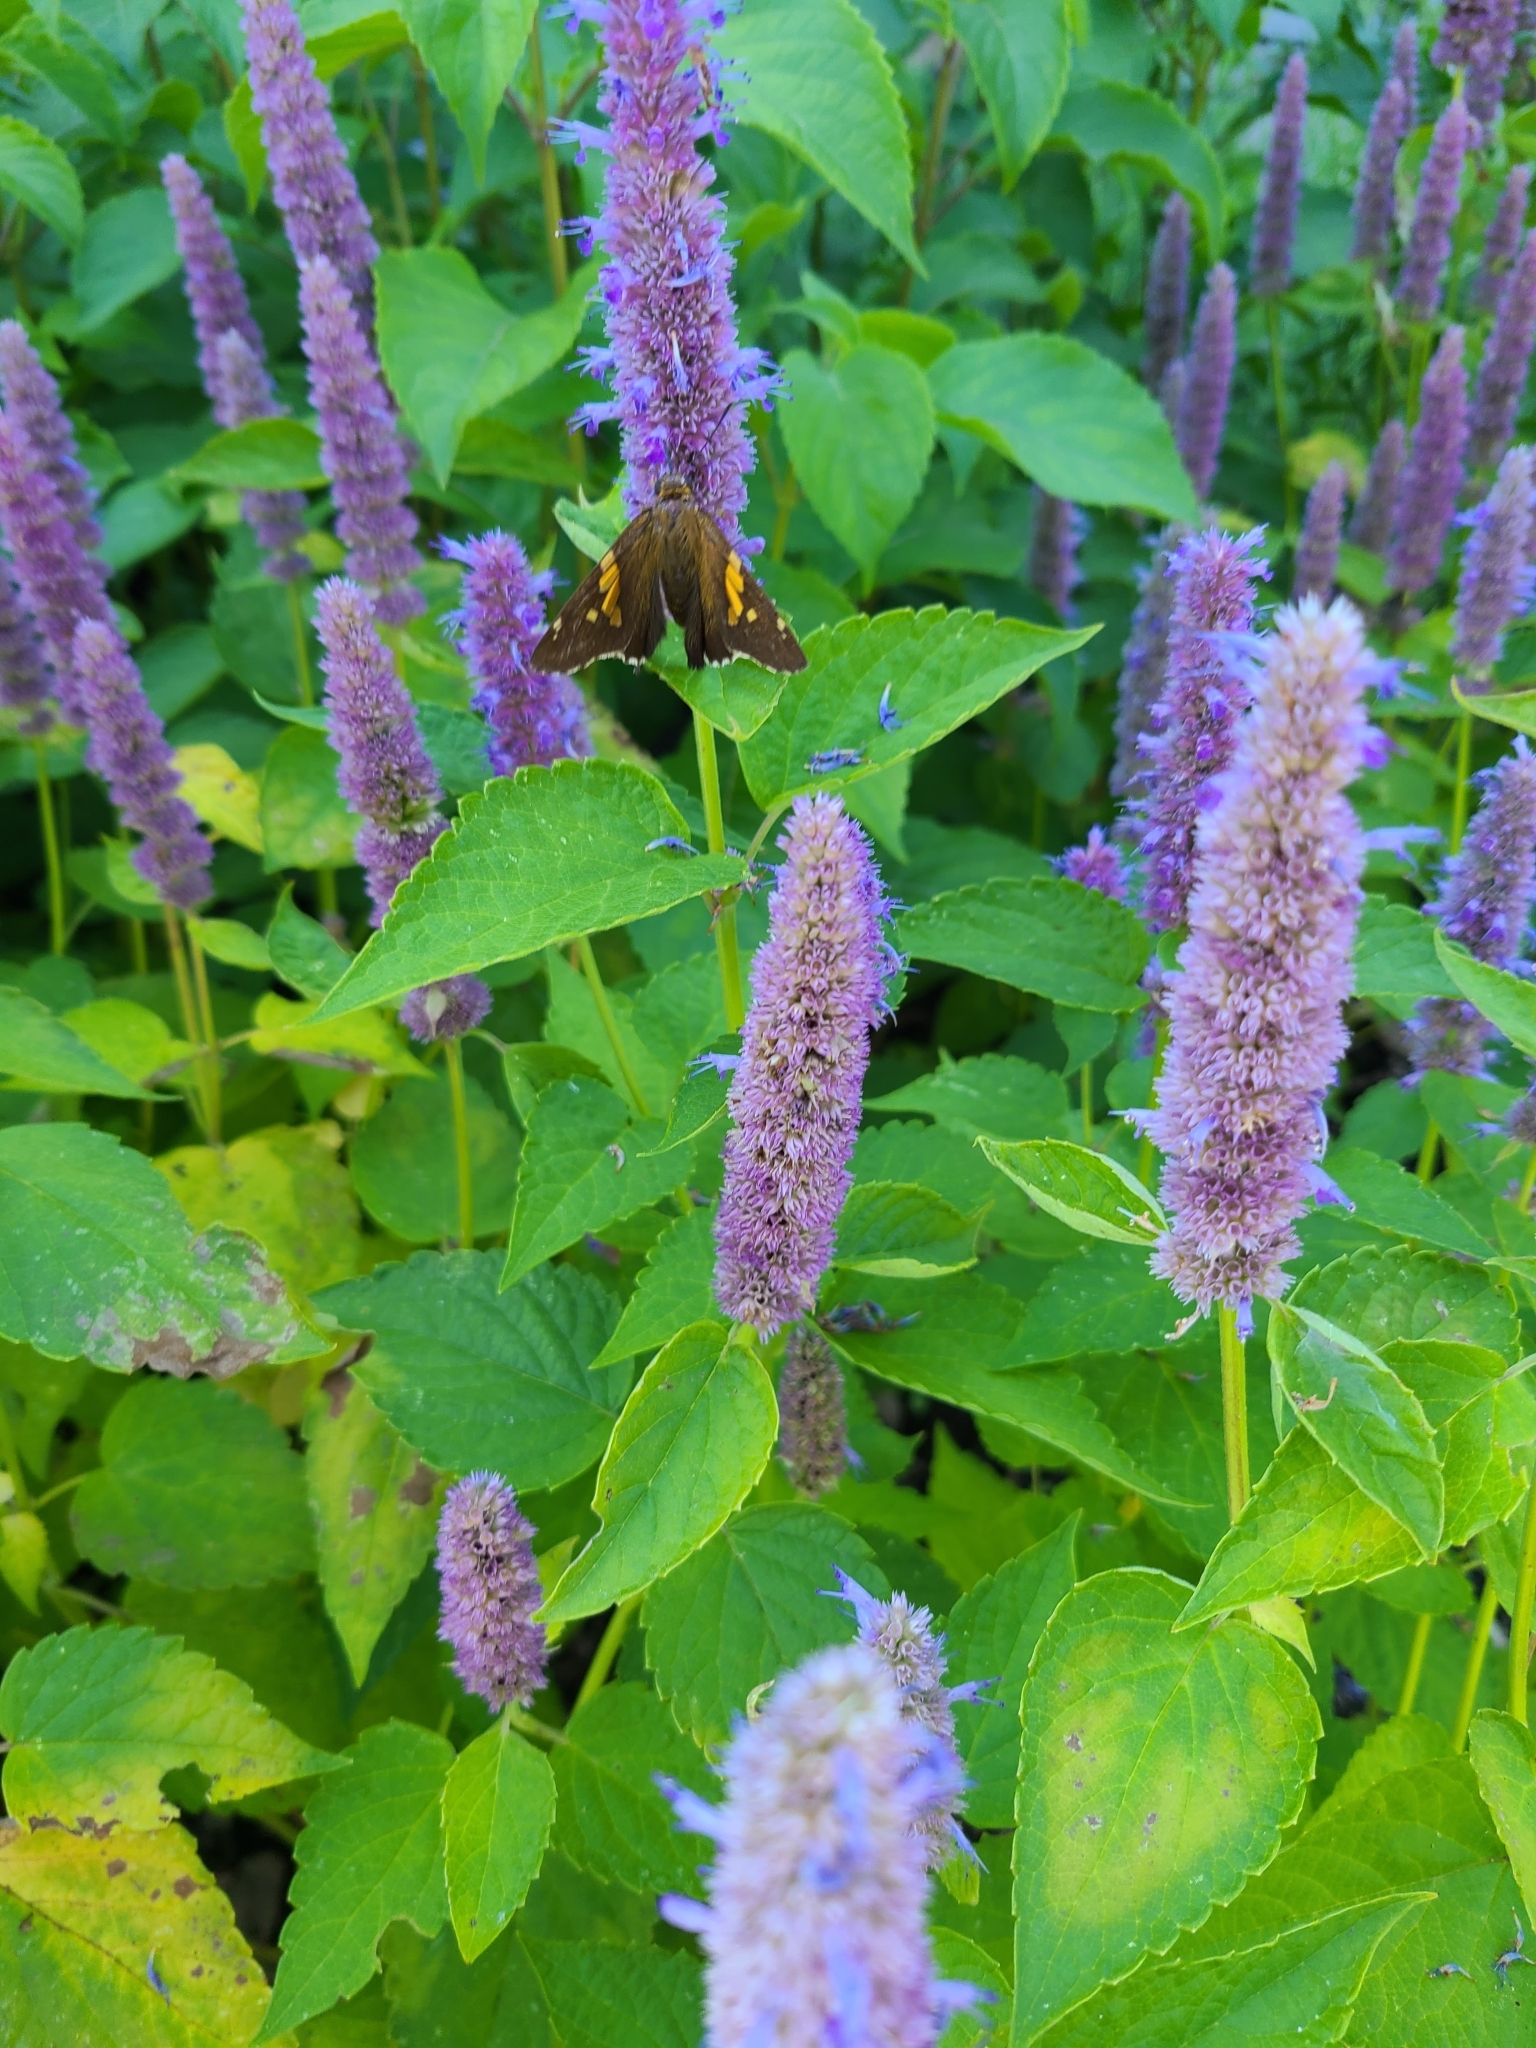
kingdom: Animalia
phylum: Arthropoda
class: Insecta
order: Lepidoptera
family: Hesperiidae
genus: Epargyreus
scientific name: Epargyreus clarus
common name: Silver-spotted skipper
